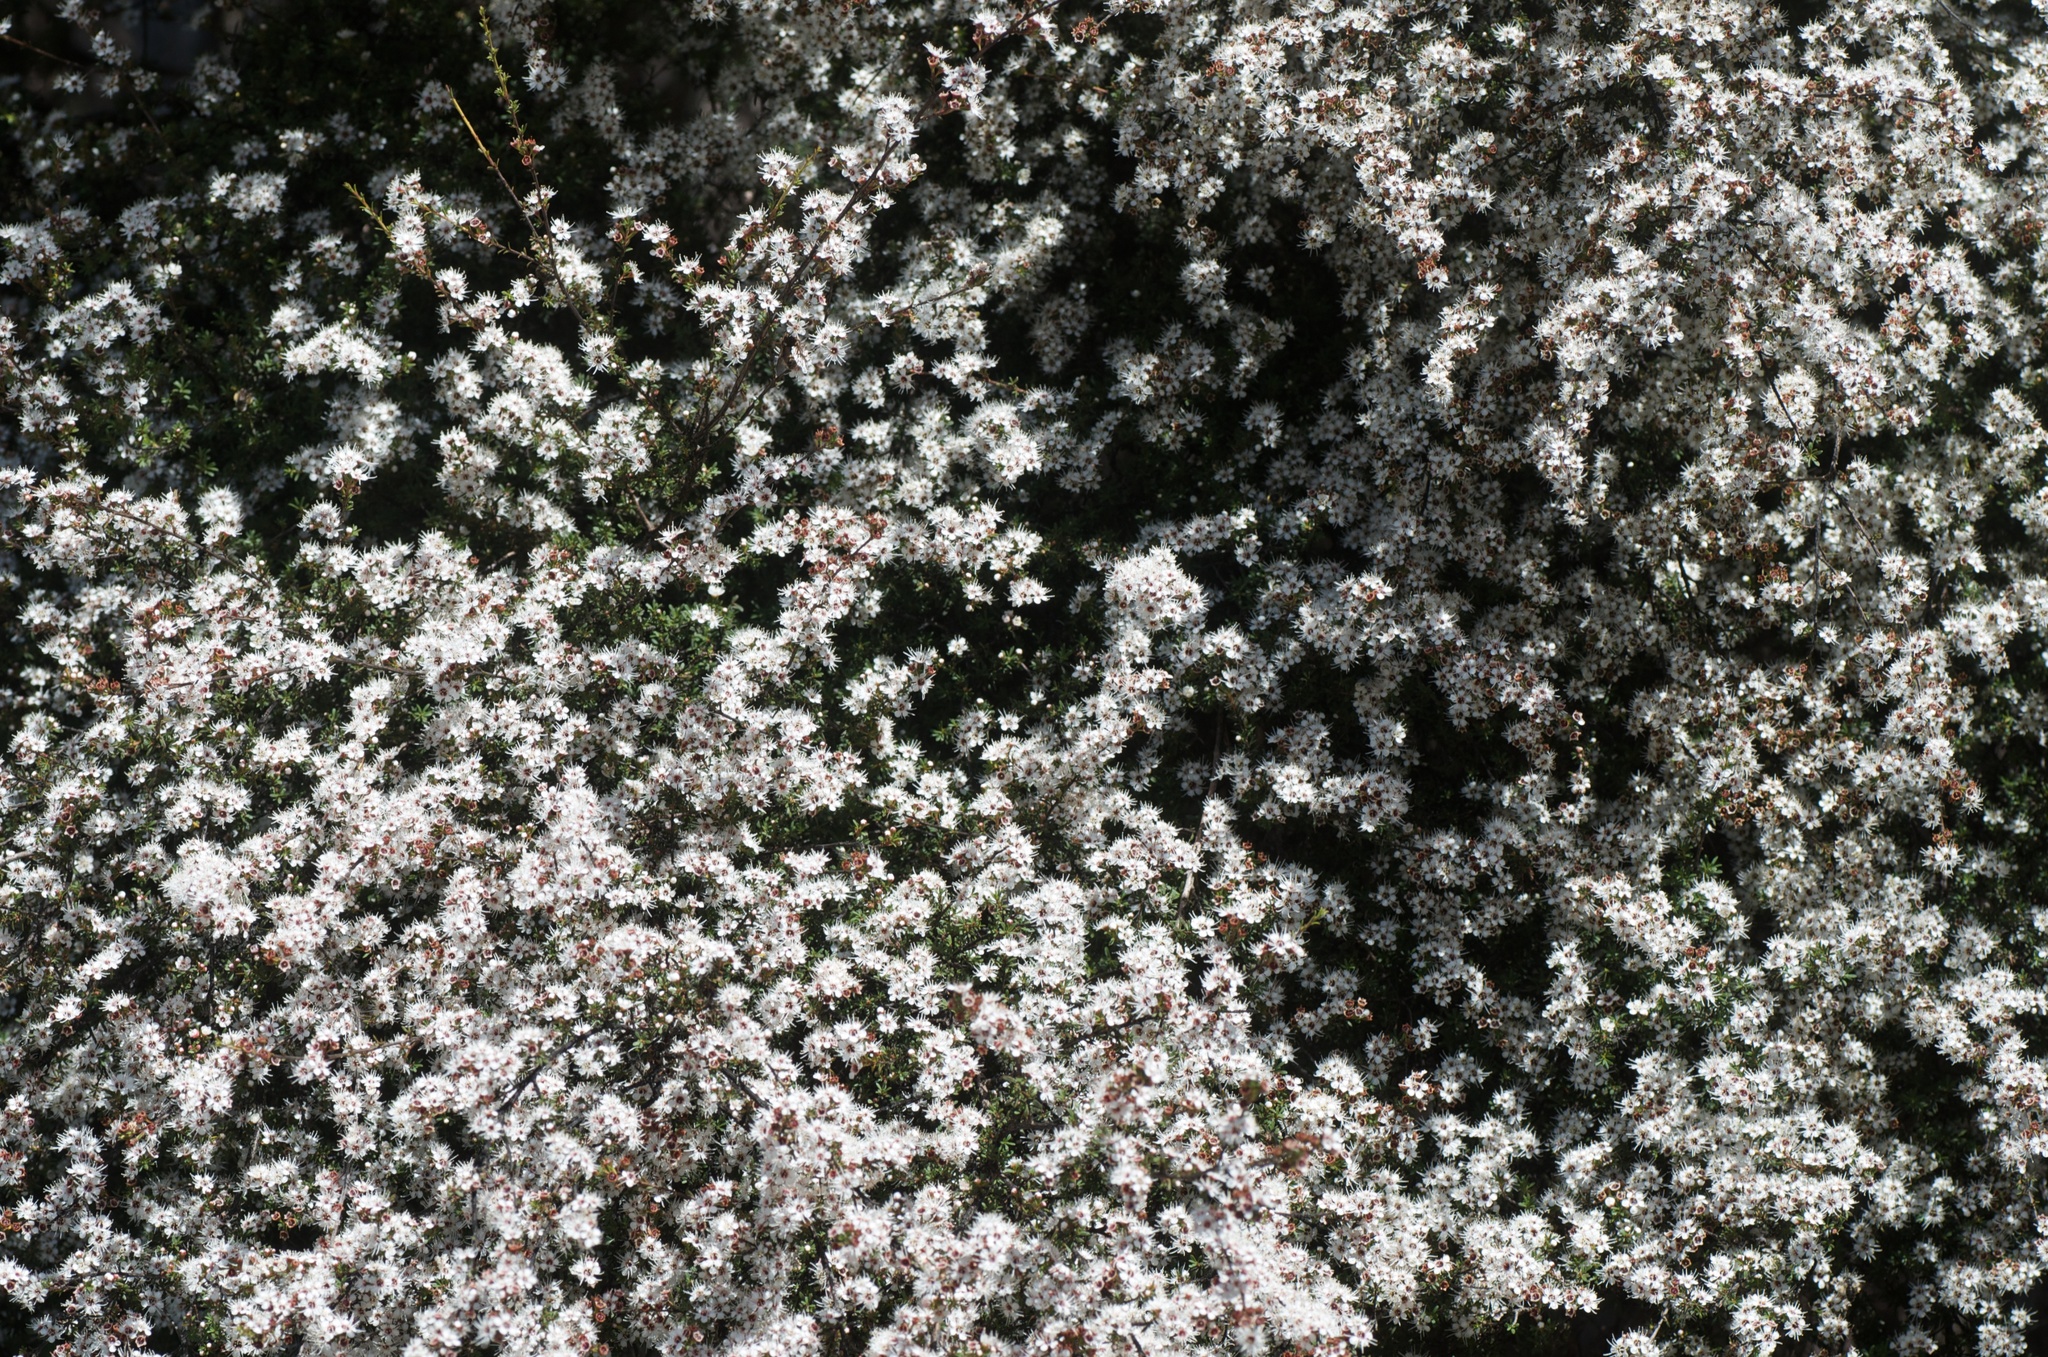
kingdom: Plantae
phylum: Tracheophyta
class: Magnoliopsida
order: Myrtales
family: Myrtaceae
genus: Kunzea
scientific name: Kunzea ericoides
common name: Burgan
